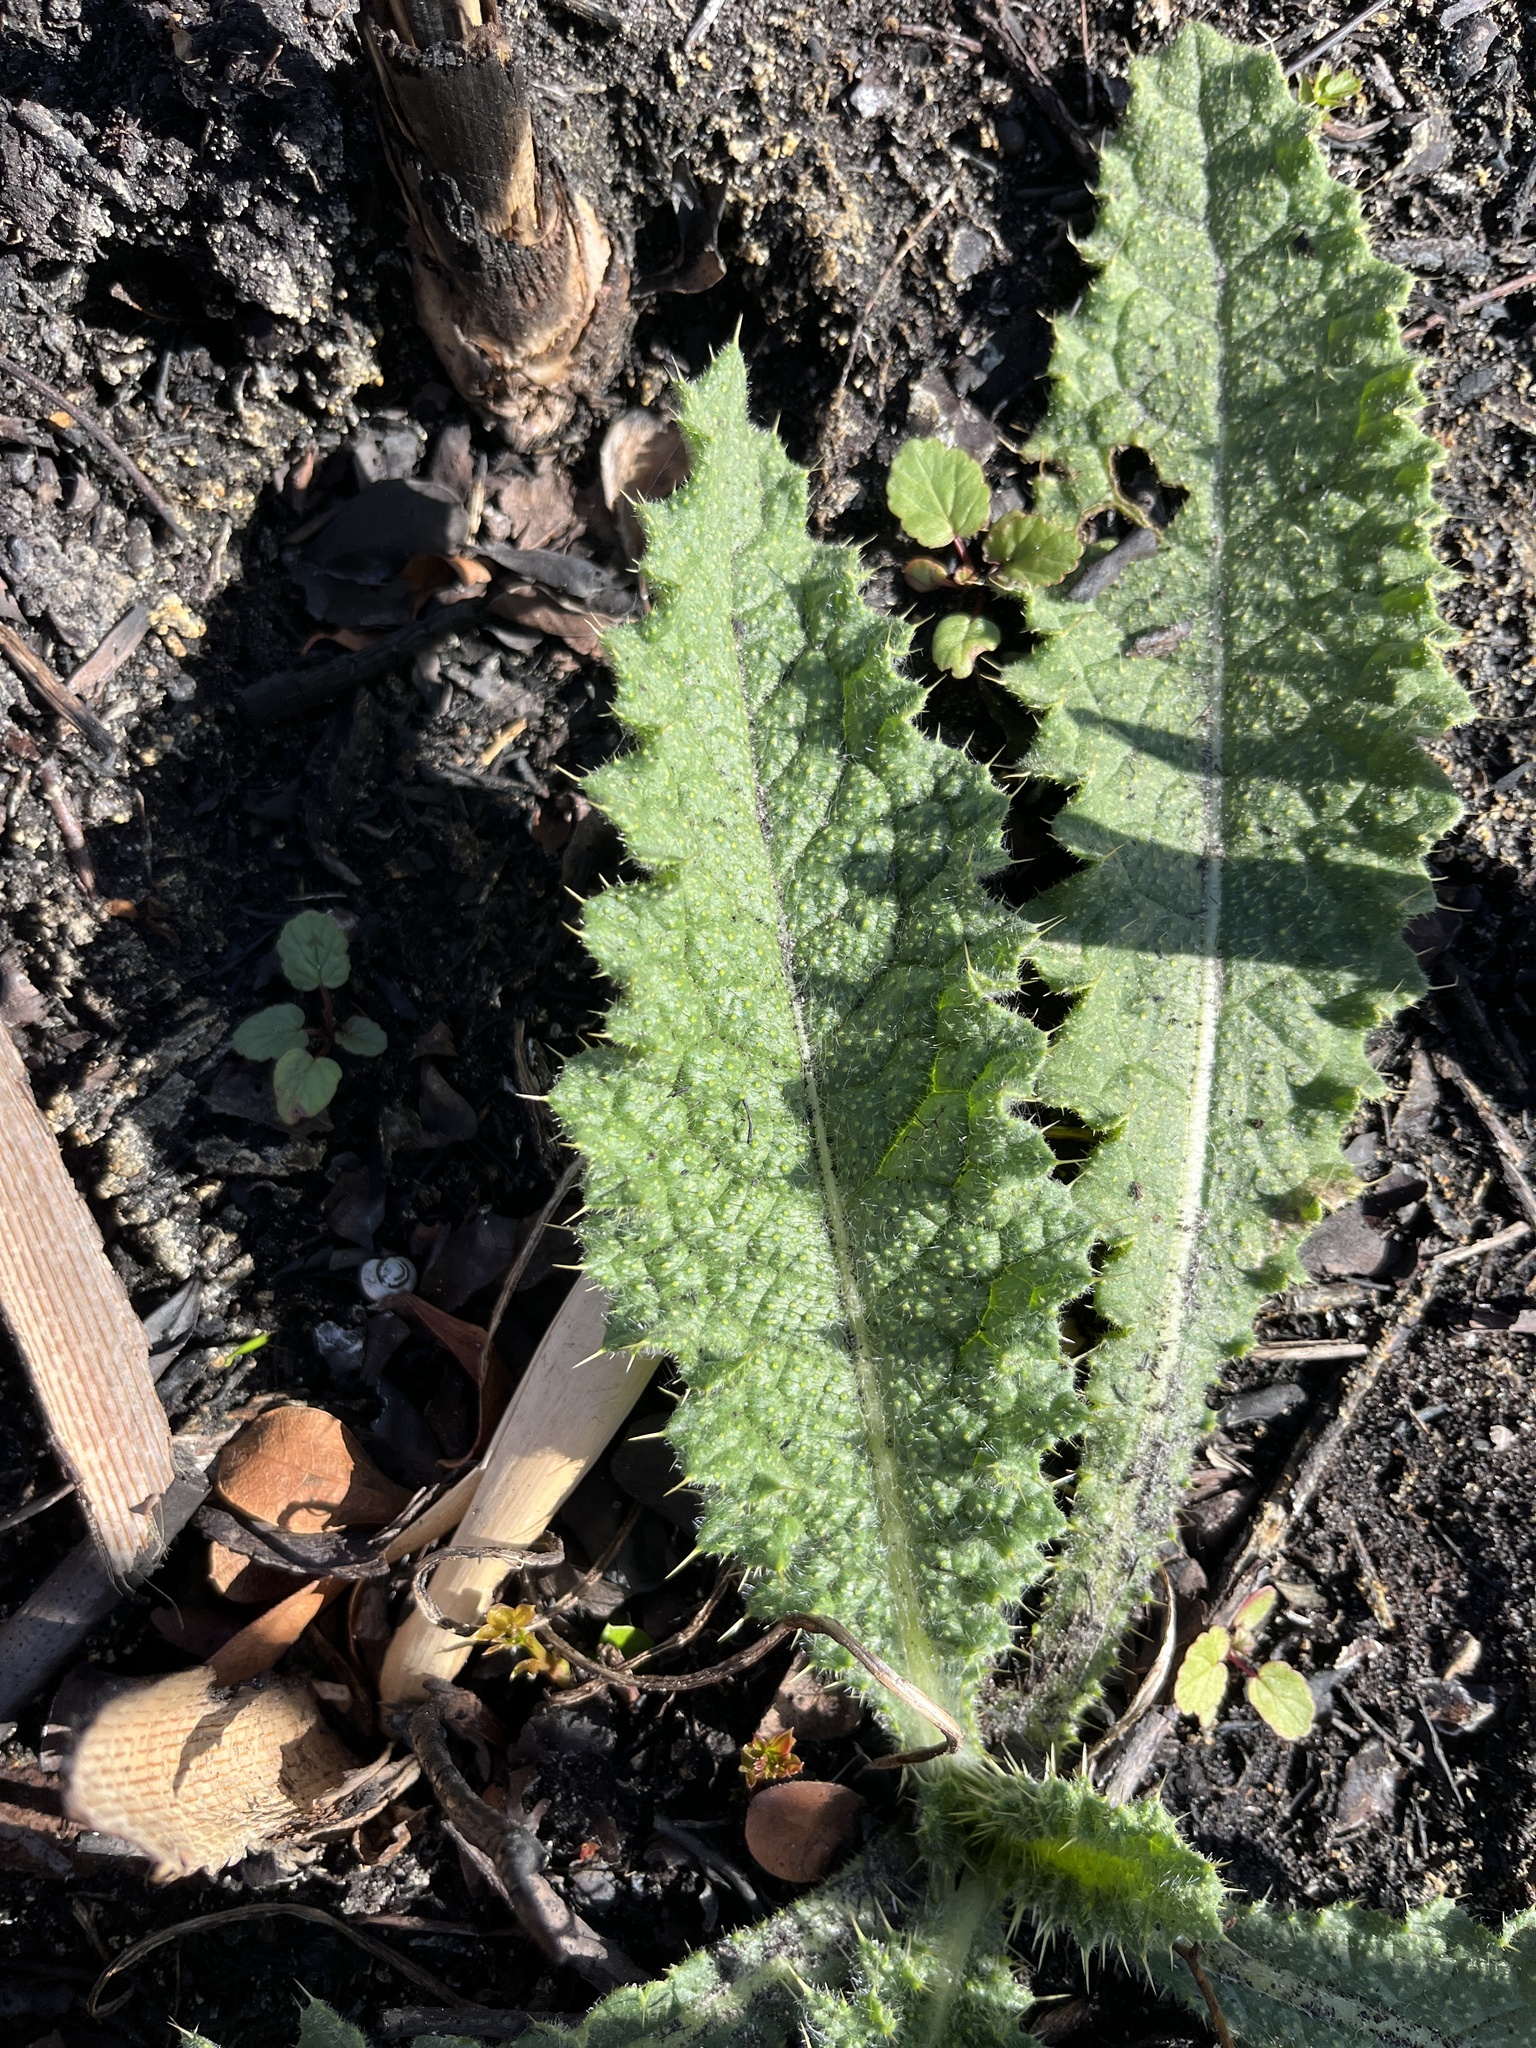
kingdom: Plantae
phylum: Tracheophyta
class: Magnoliopsida
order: Asterales
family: Asteraceae
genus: Cirsium
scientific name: Cirsium vulgare
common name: Bull thistle
